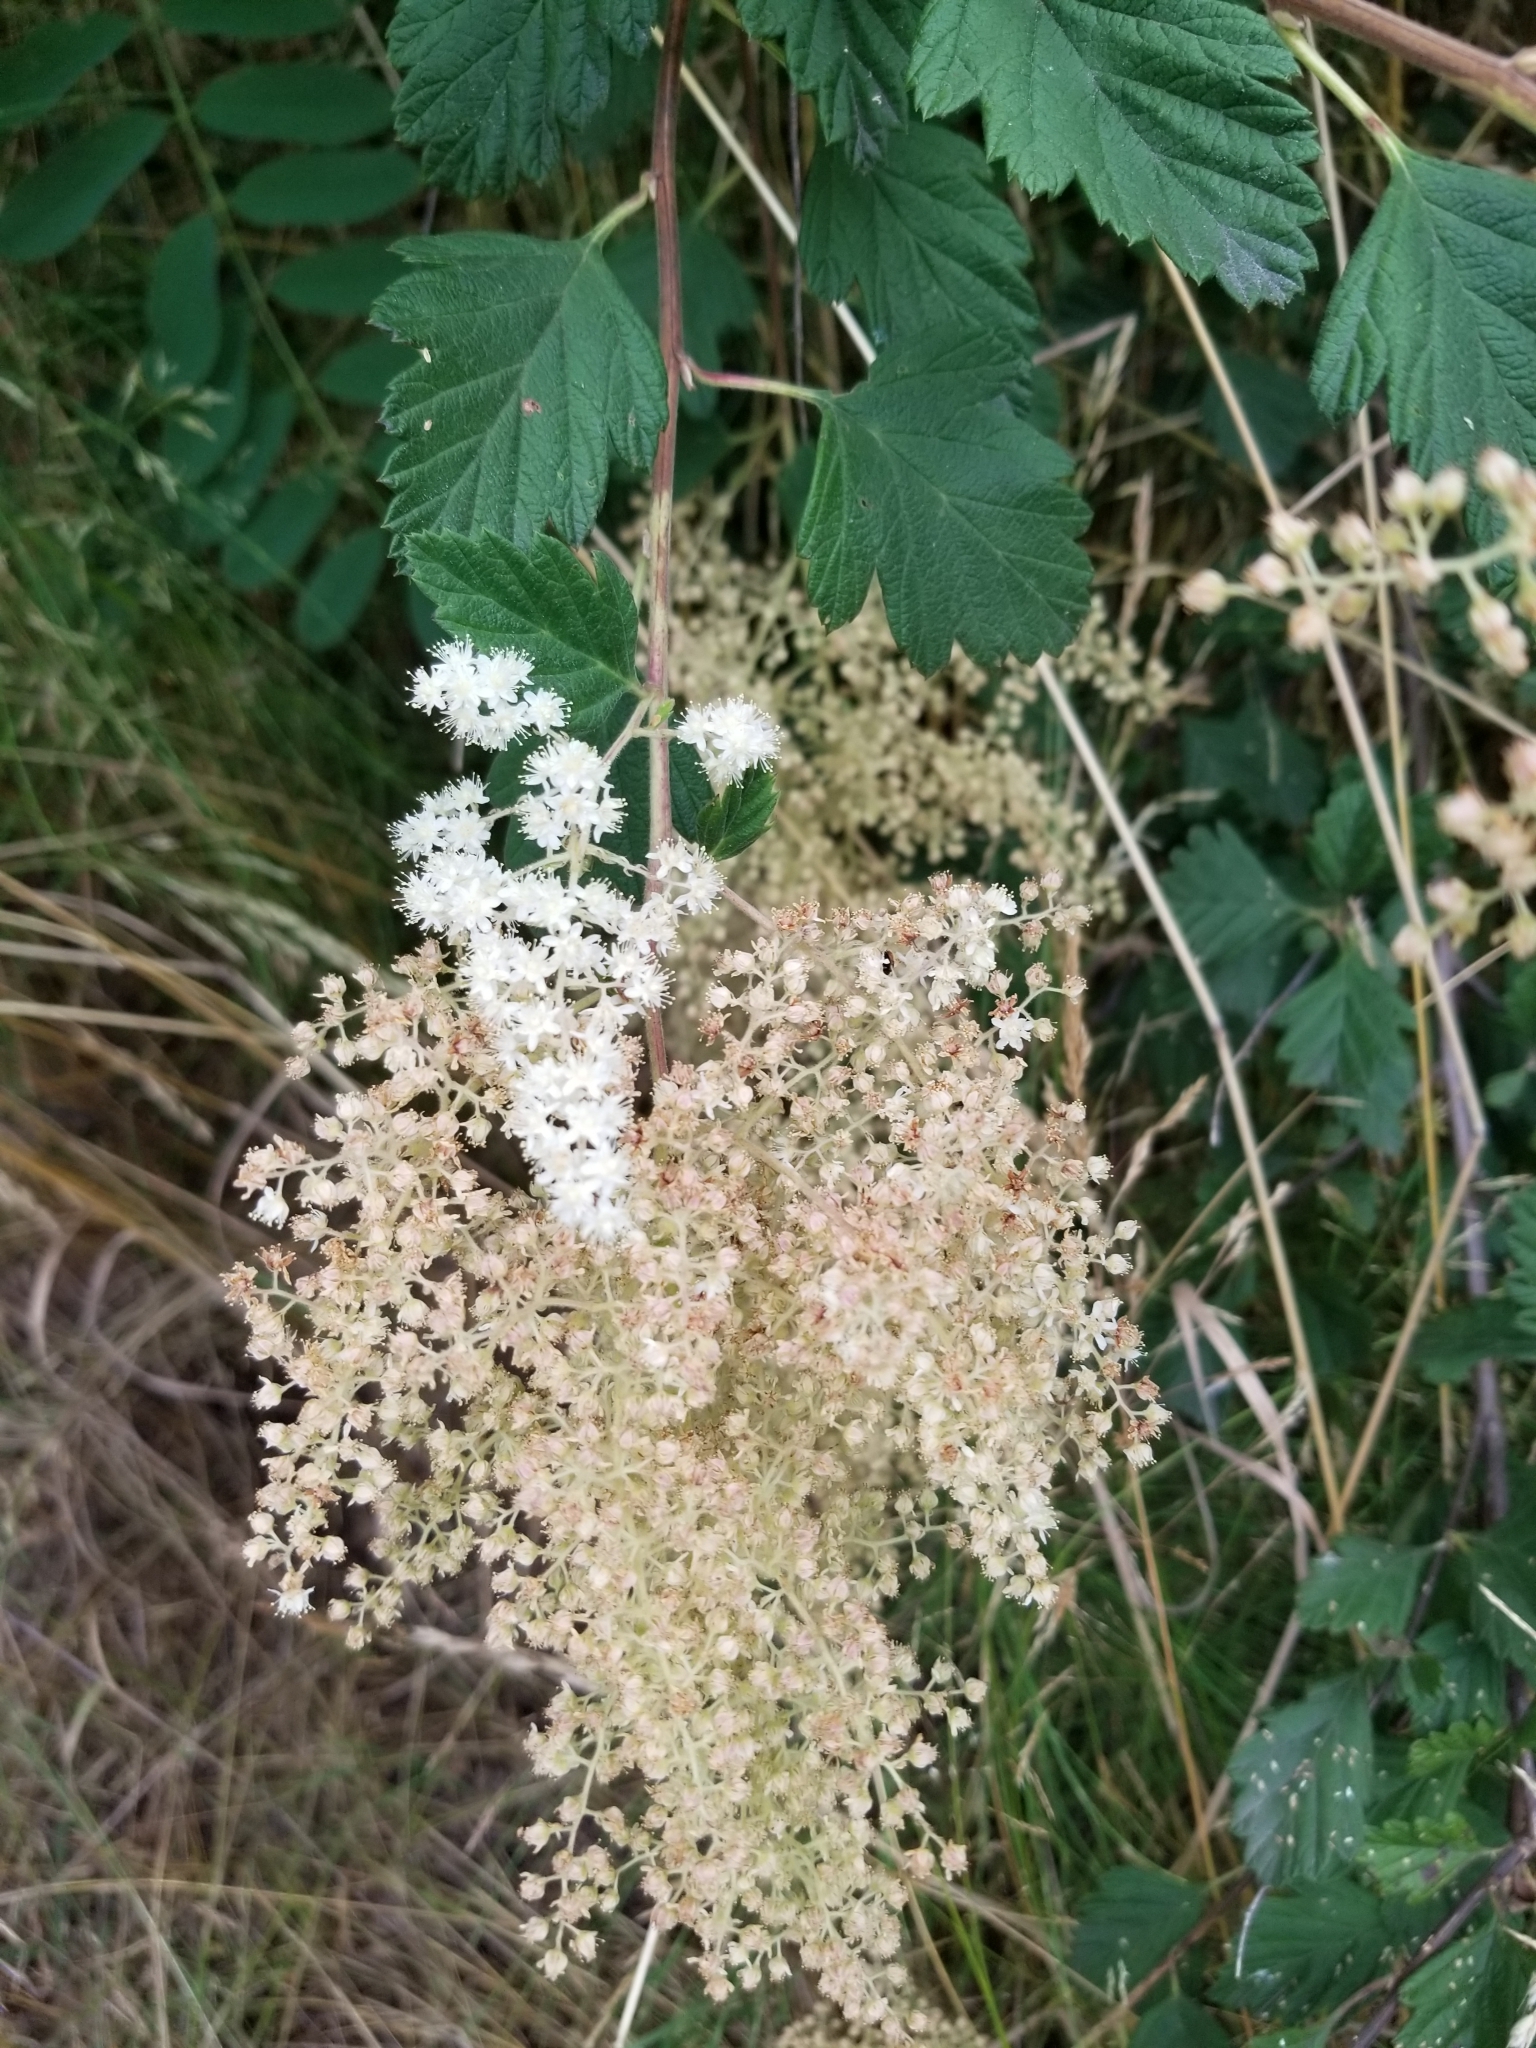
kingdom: Plantae
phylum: Tracheophyta
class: Magnoliopsida
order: Rosales
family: Rosaceae
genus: Holodiscus
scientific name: Holodiscus discolor
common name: Oceanspray
